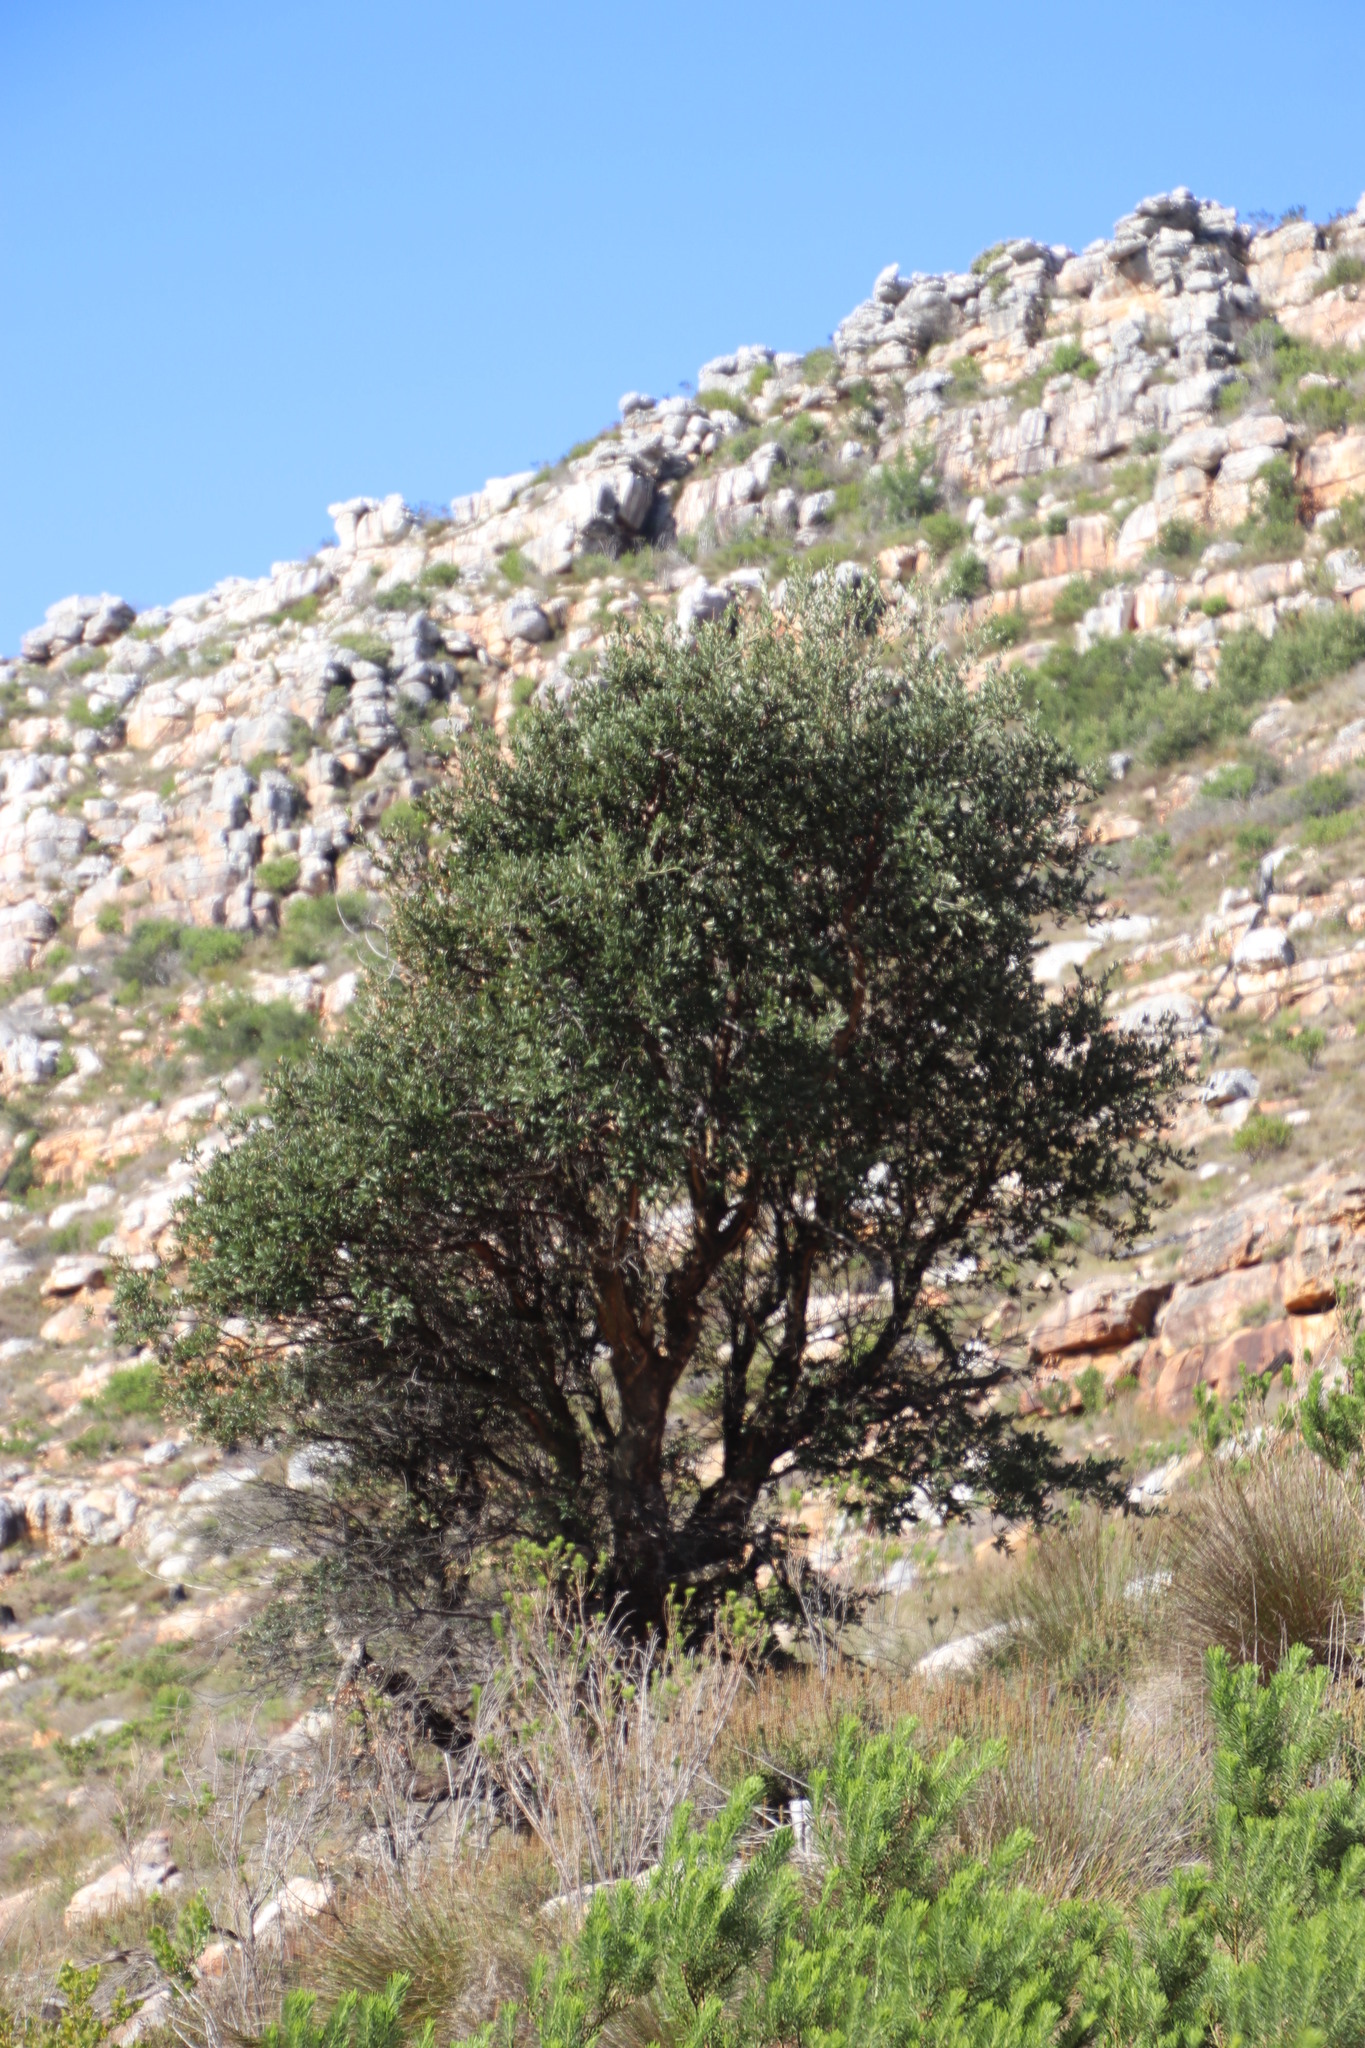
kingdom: Plantae
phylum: Tracheophyta
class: Magnoliopsida
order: Fagales
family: Fagaceae
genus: Quercus
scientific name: Quercus suber
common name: Cork oak
